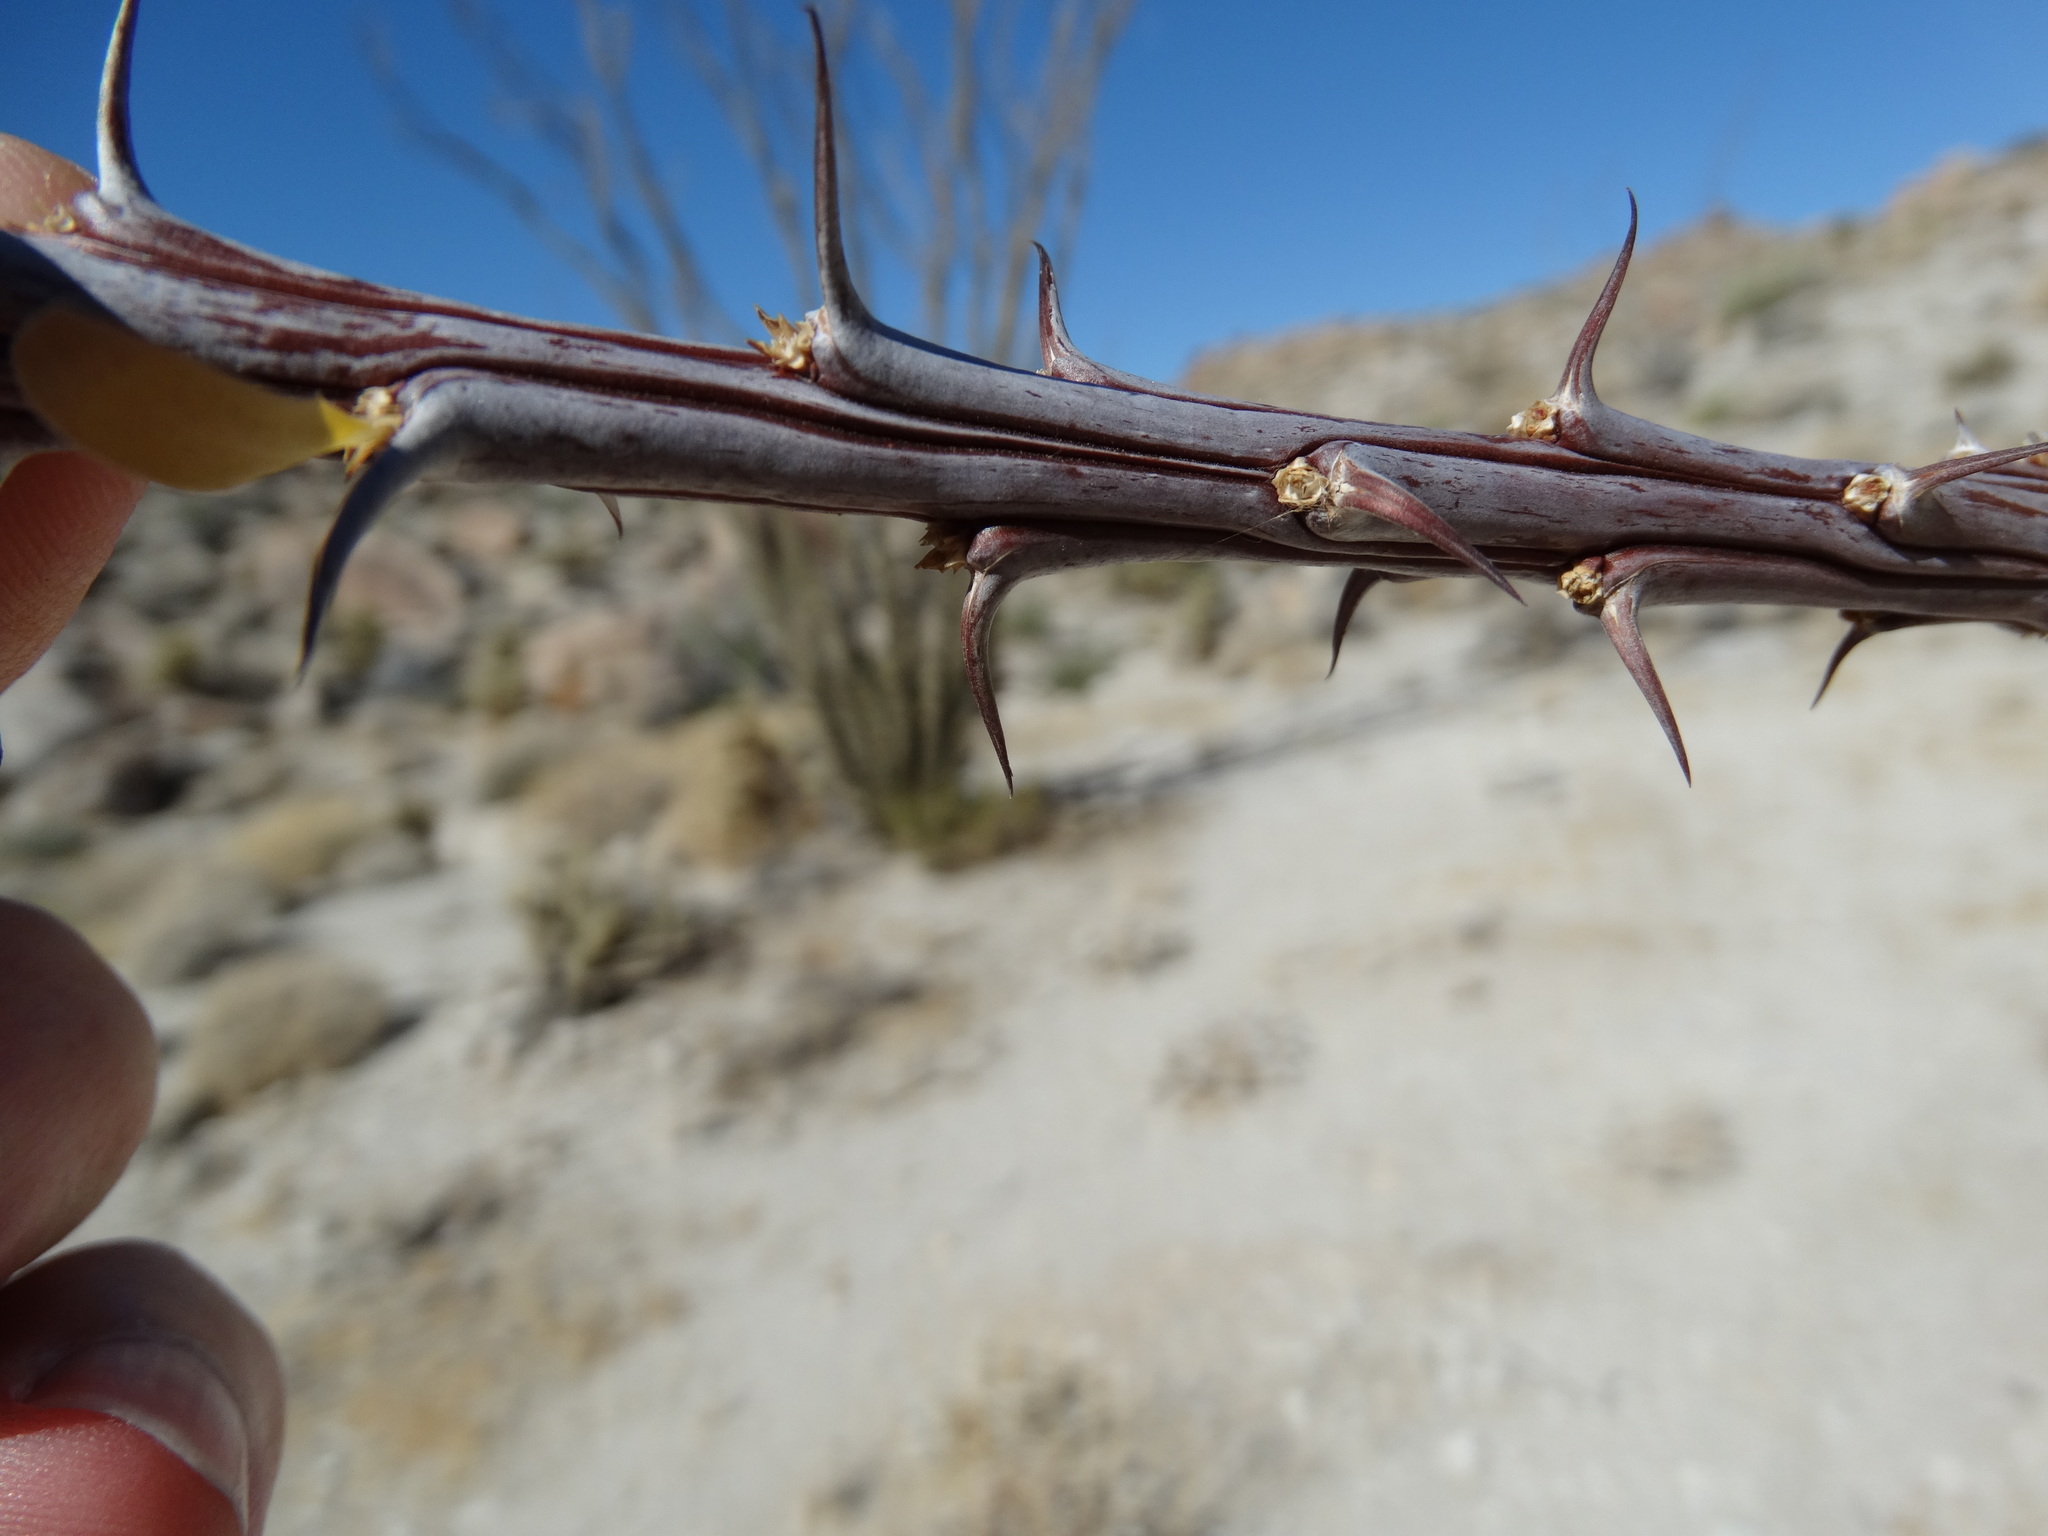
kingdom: Plantae
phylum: Tracheophyta
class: Magnoliopsida
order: Ericales
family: Fouquieriaceae
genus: Fouquieria
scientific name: Fouquieria splendens
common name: Vine-cactus
